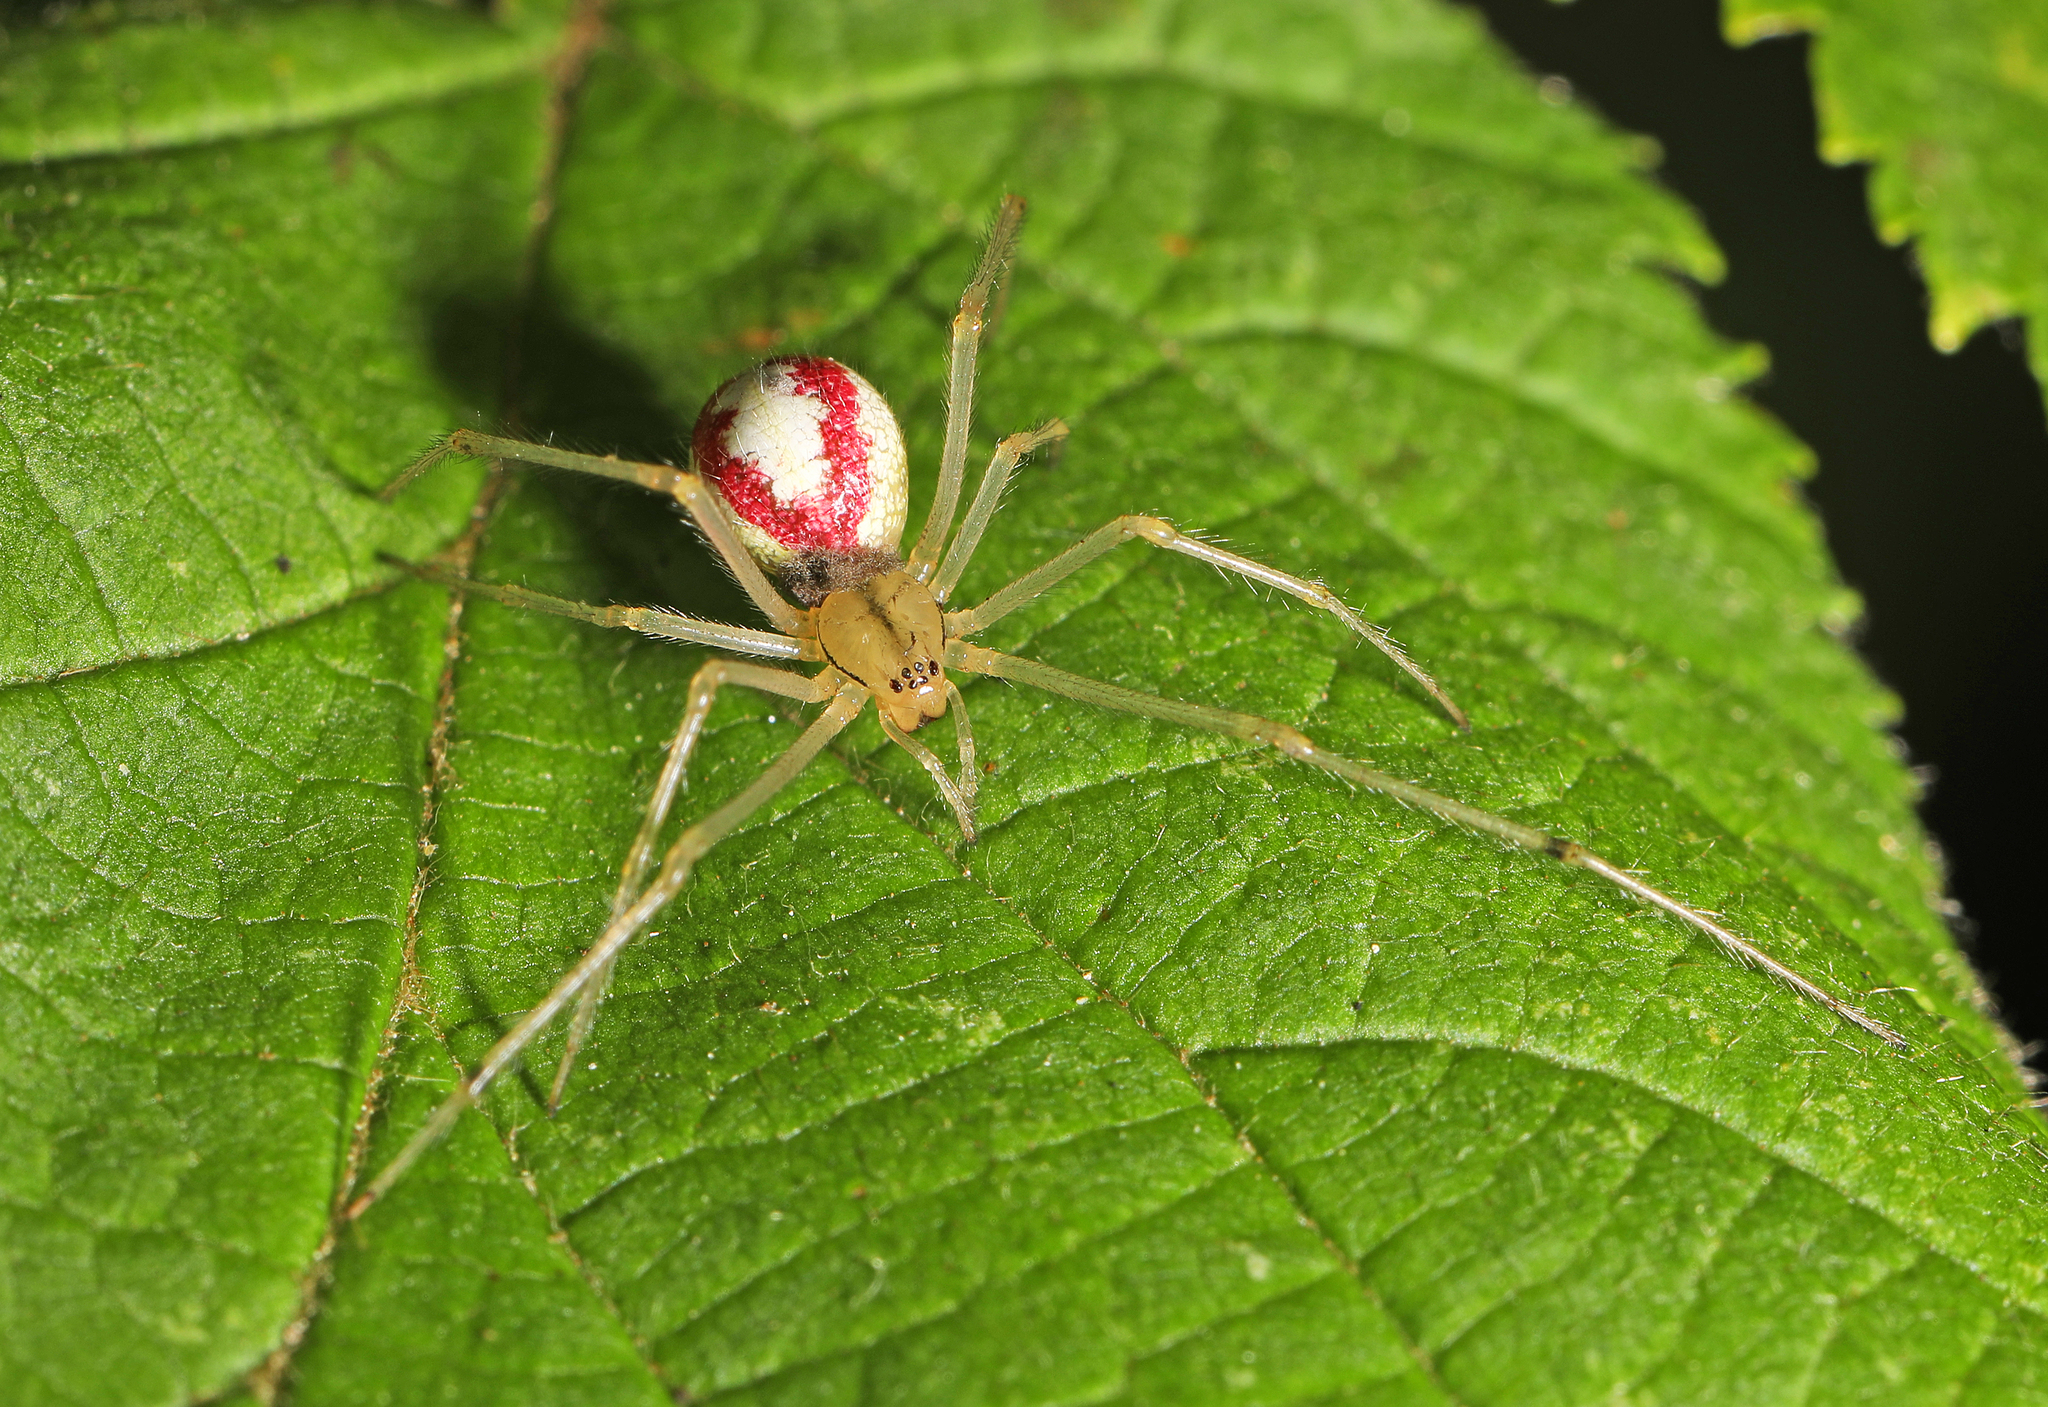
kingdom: Animalia
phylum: Arthropoda
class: Arachnida
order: Araneae
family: Theridiidae
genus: Enoplognatha
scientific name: Enoplognatha ovata
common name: Common candy-striped spider
